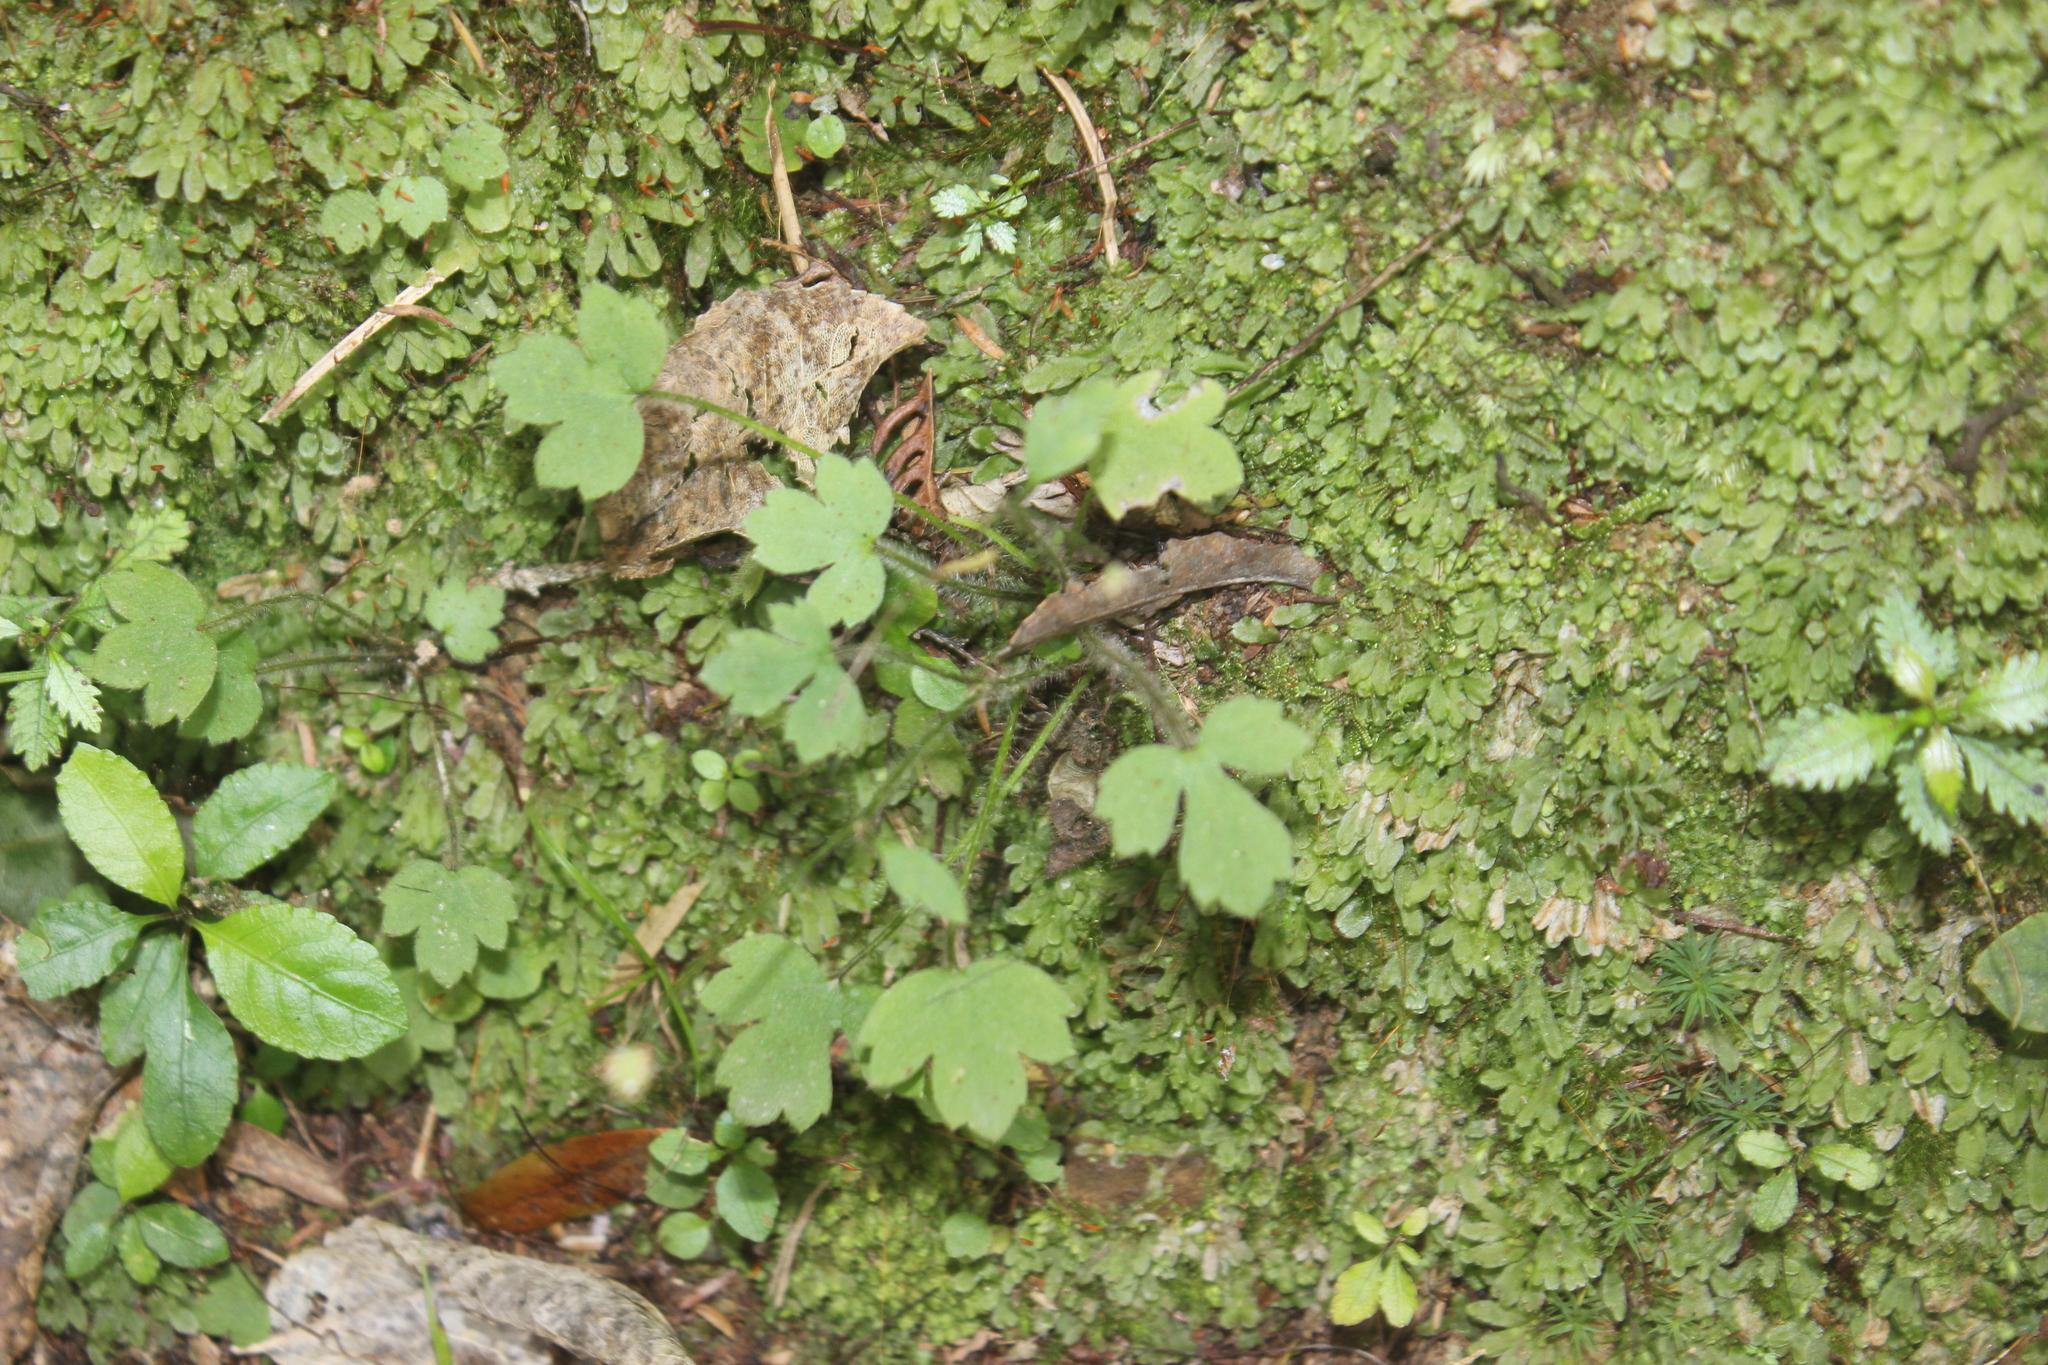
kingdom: Plantae
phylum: Tracheophyta
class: Magnoliopsida
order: Ranunculales
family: Ranunculaceae
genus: Ranunculus
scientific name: Ranunculus reflexus
